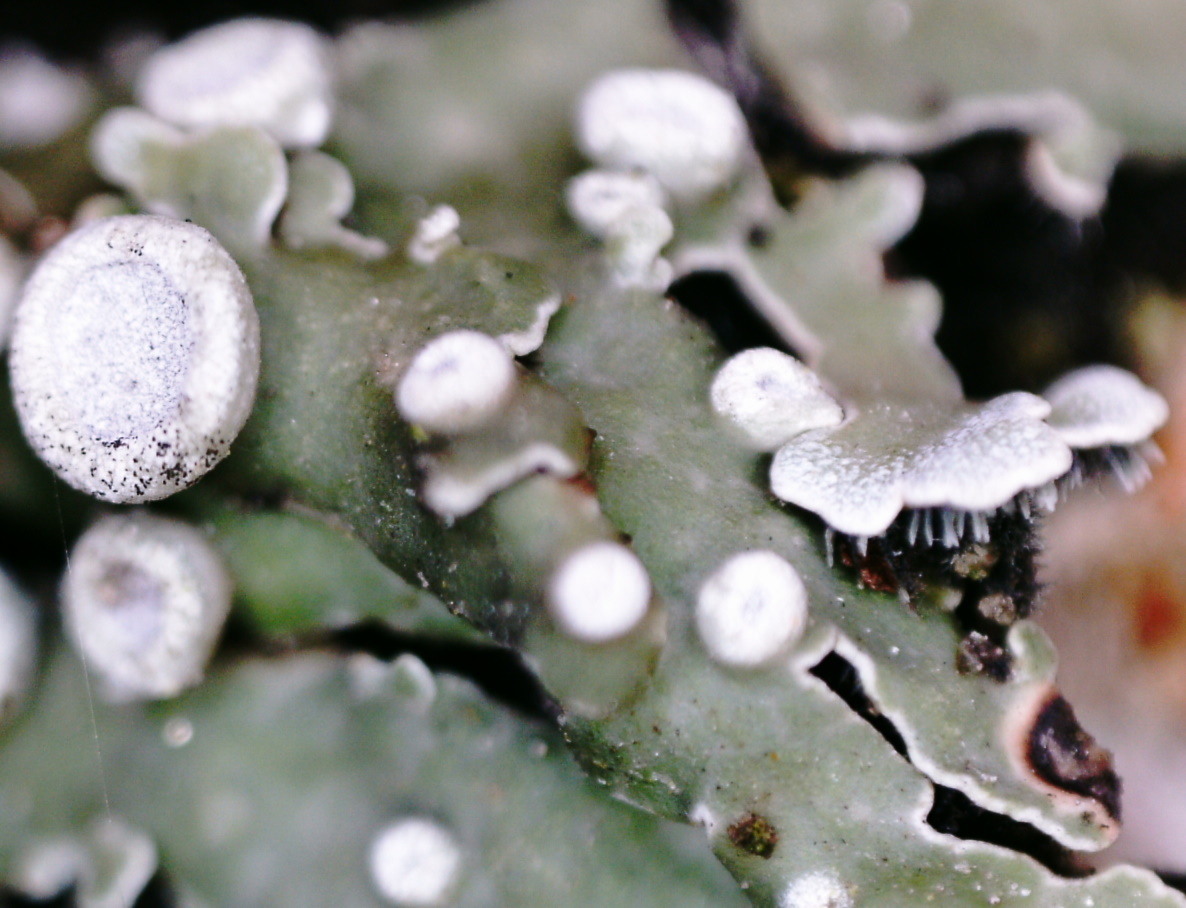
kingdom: Fungi
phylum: Ascomycota
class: Lecanoromycetes
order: Caliciales
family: Physciaceae
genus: Physconia
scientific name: Physconia distorta
